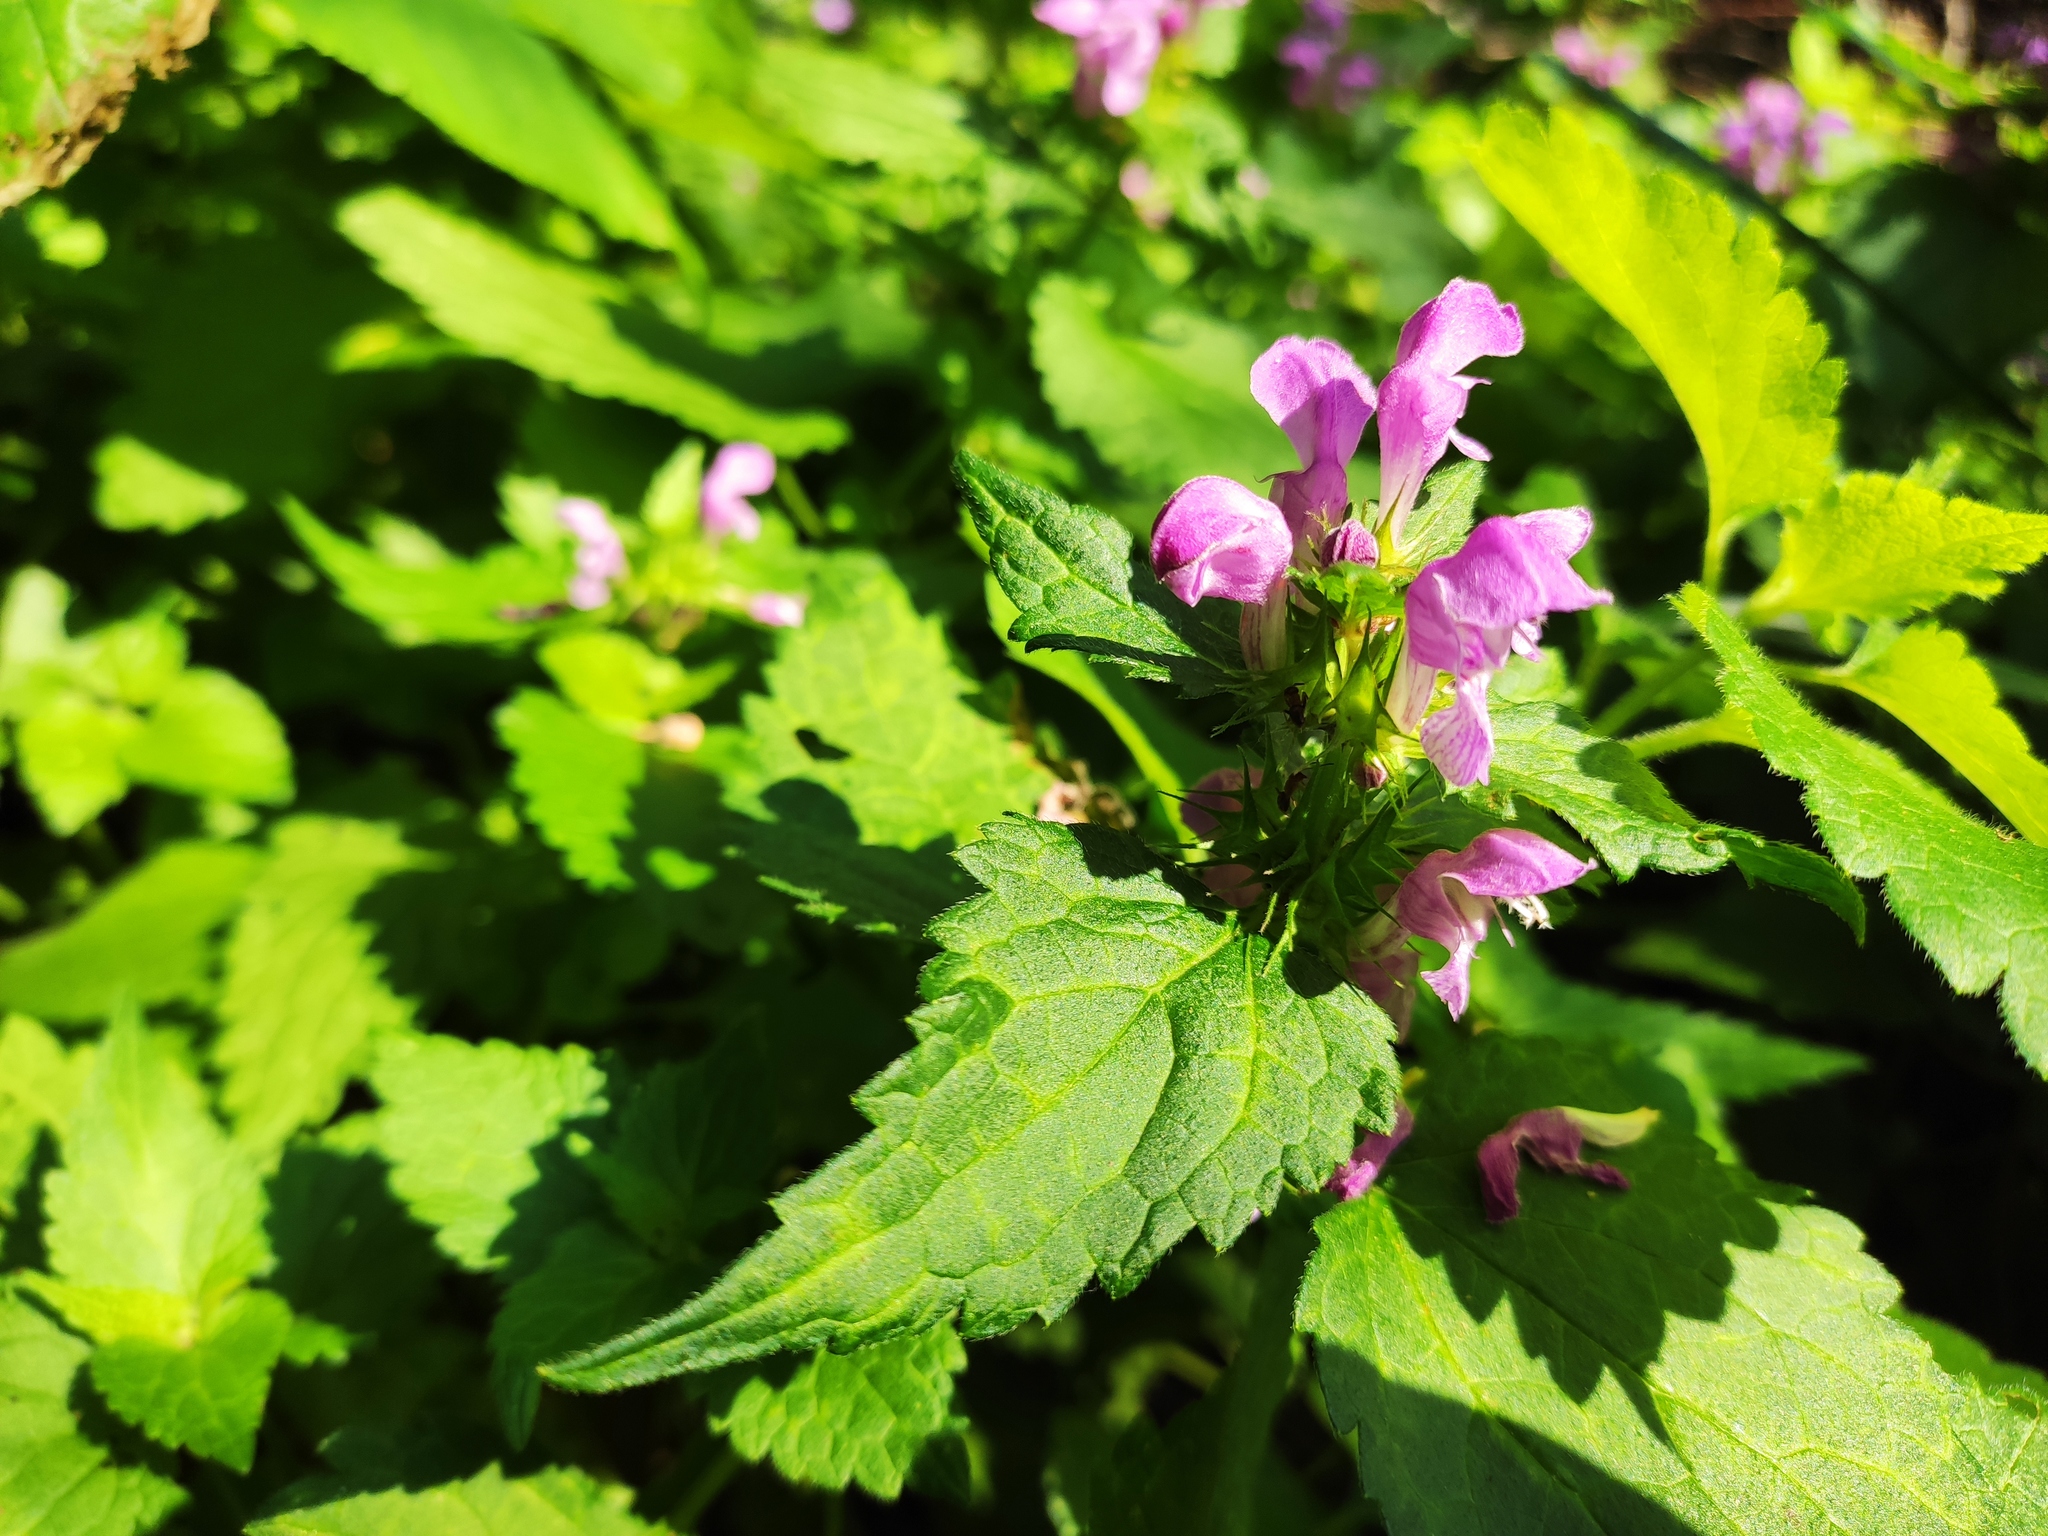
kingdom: Plantae
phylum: Tracheophyta
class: Magnoliopsida
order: Lamiales
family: Lamiaceae
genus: Lamium
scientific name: Lamium maculatum
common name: Spotted dead-nettle
